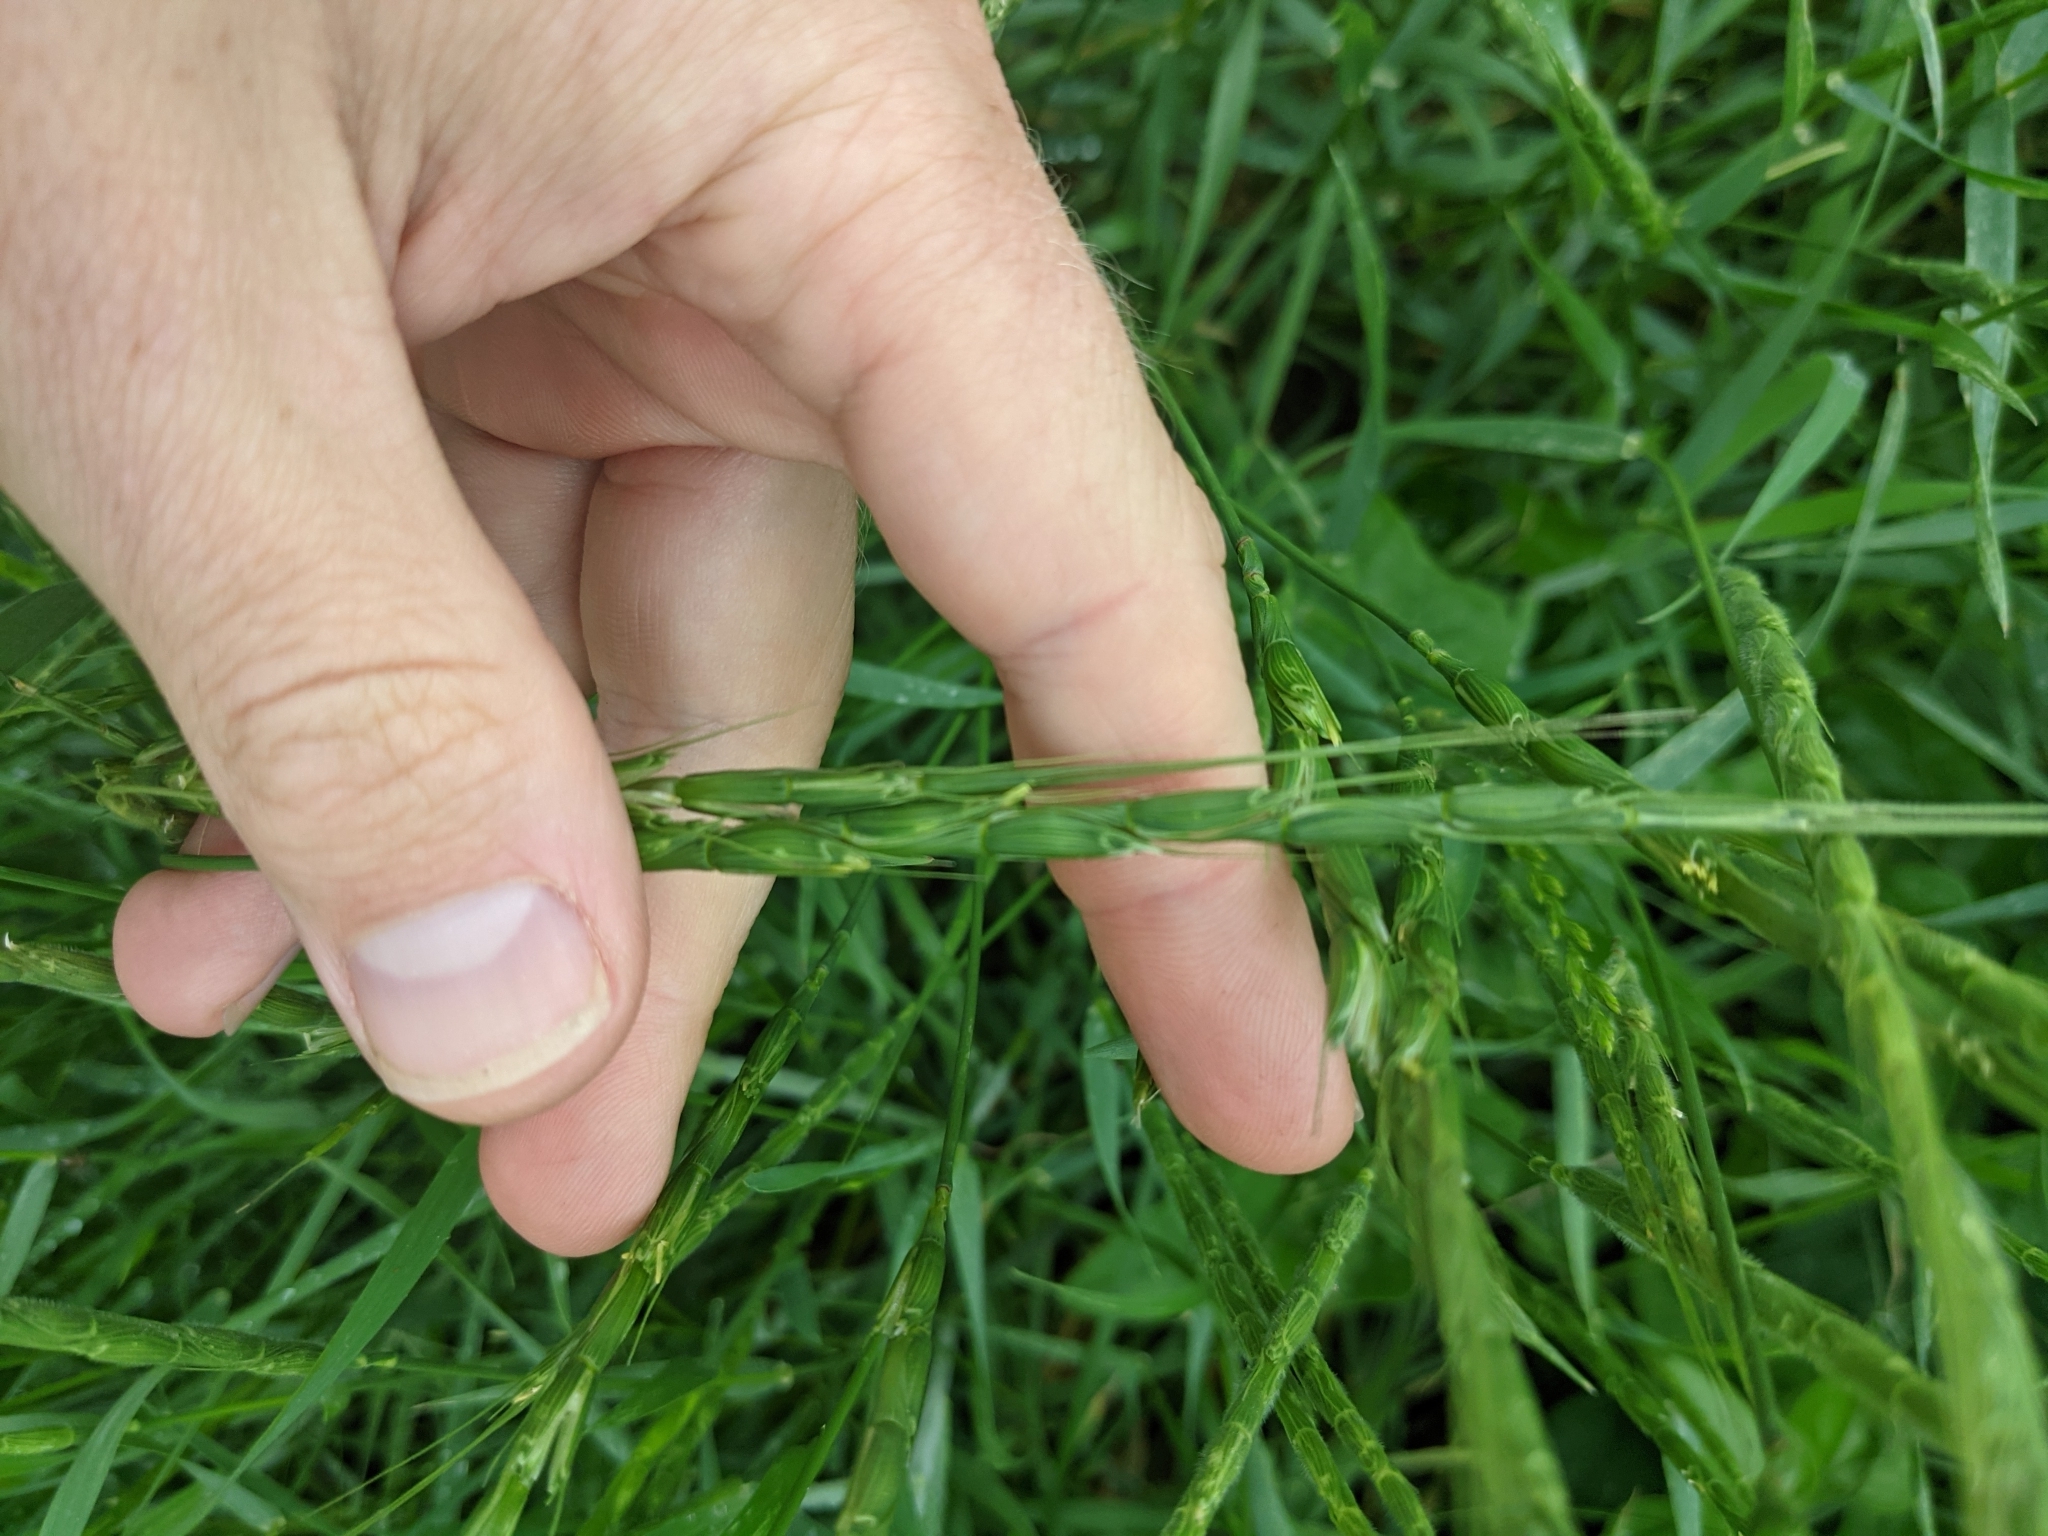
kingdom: Plantae
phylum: Tracheophyta
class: Liliopsida
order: Poales
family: Poaceae
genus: Aegilops
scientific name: Aegilops cylindrica
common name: Jointed goatgrass
